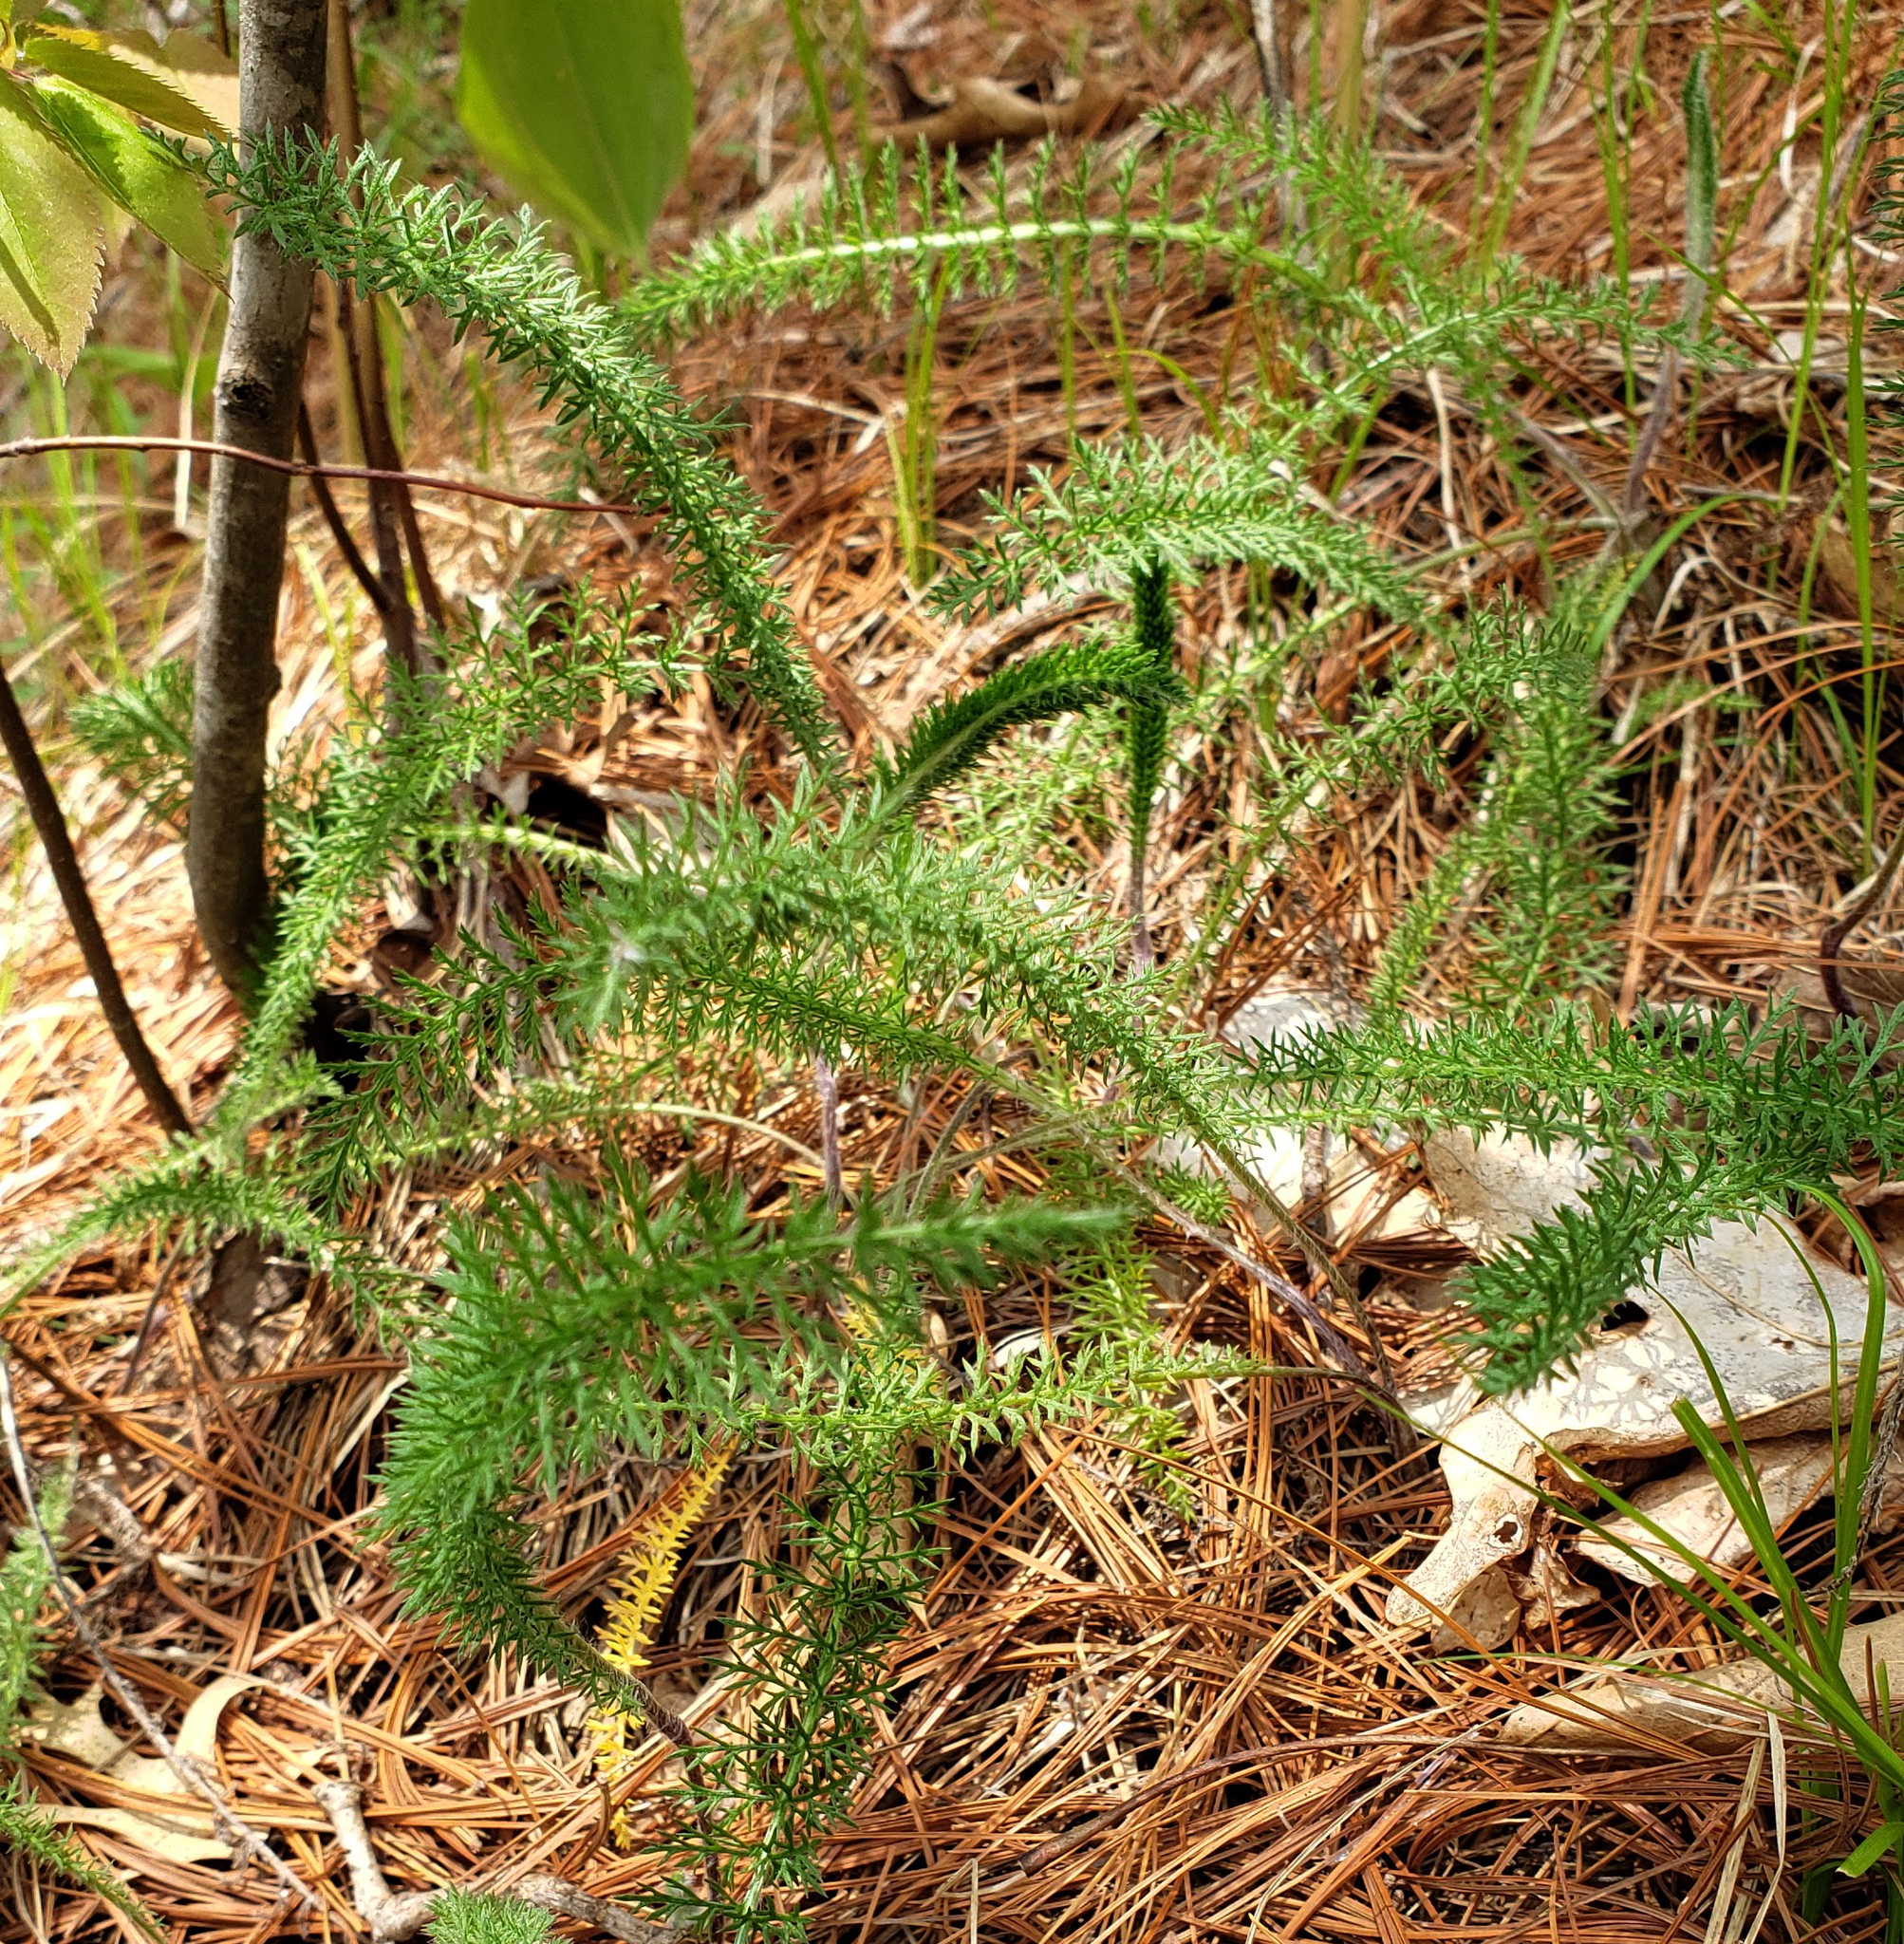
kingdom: Plantae
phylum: Tracheophyta
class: Magnoliopsida
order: Asterales
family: Asteraceae
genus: Achillea
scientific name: Achillea millefolium
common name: Yarrow
